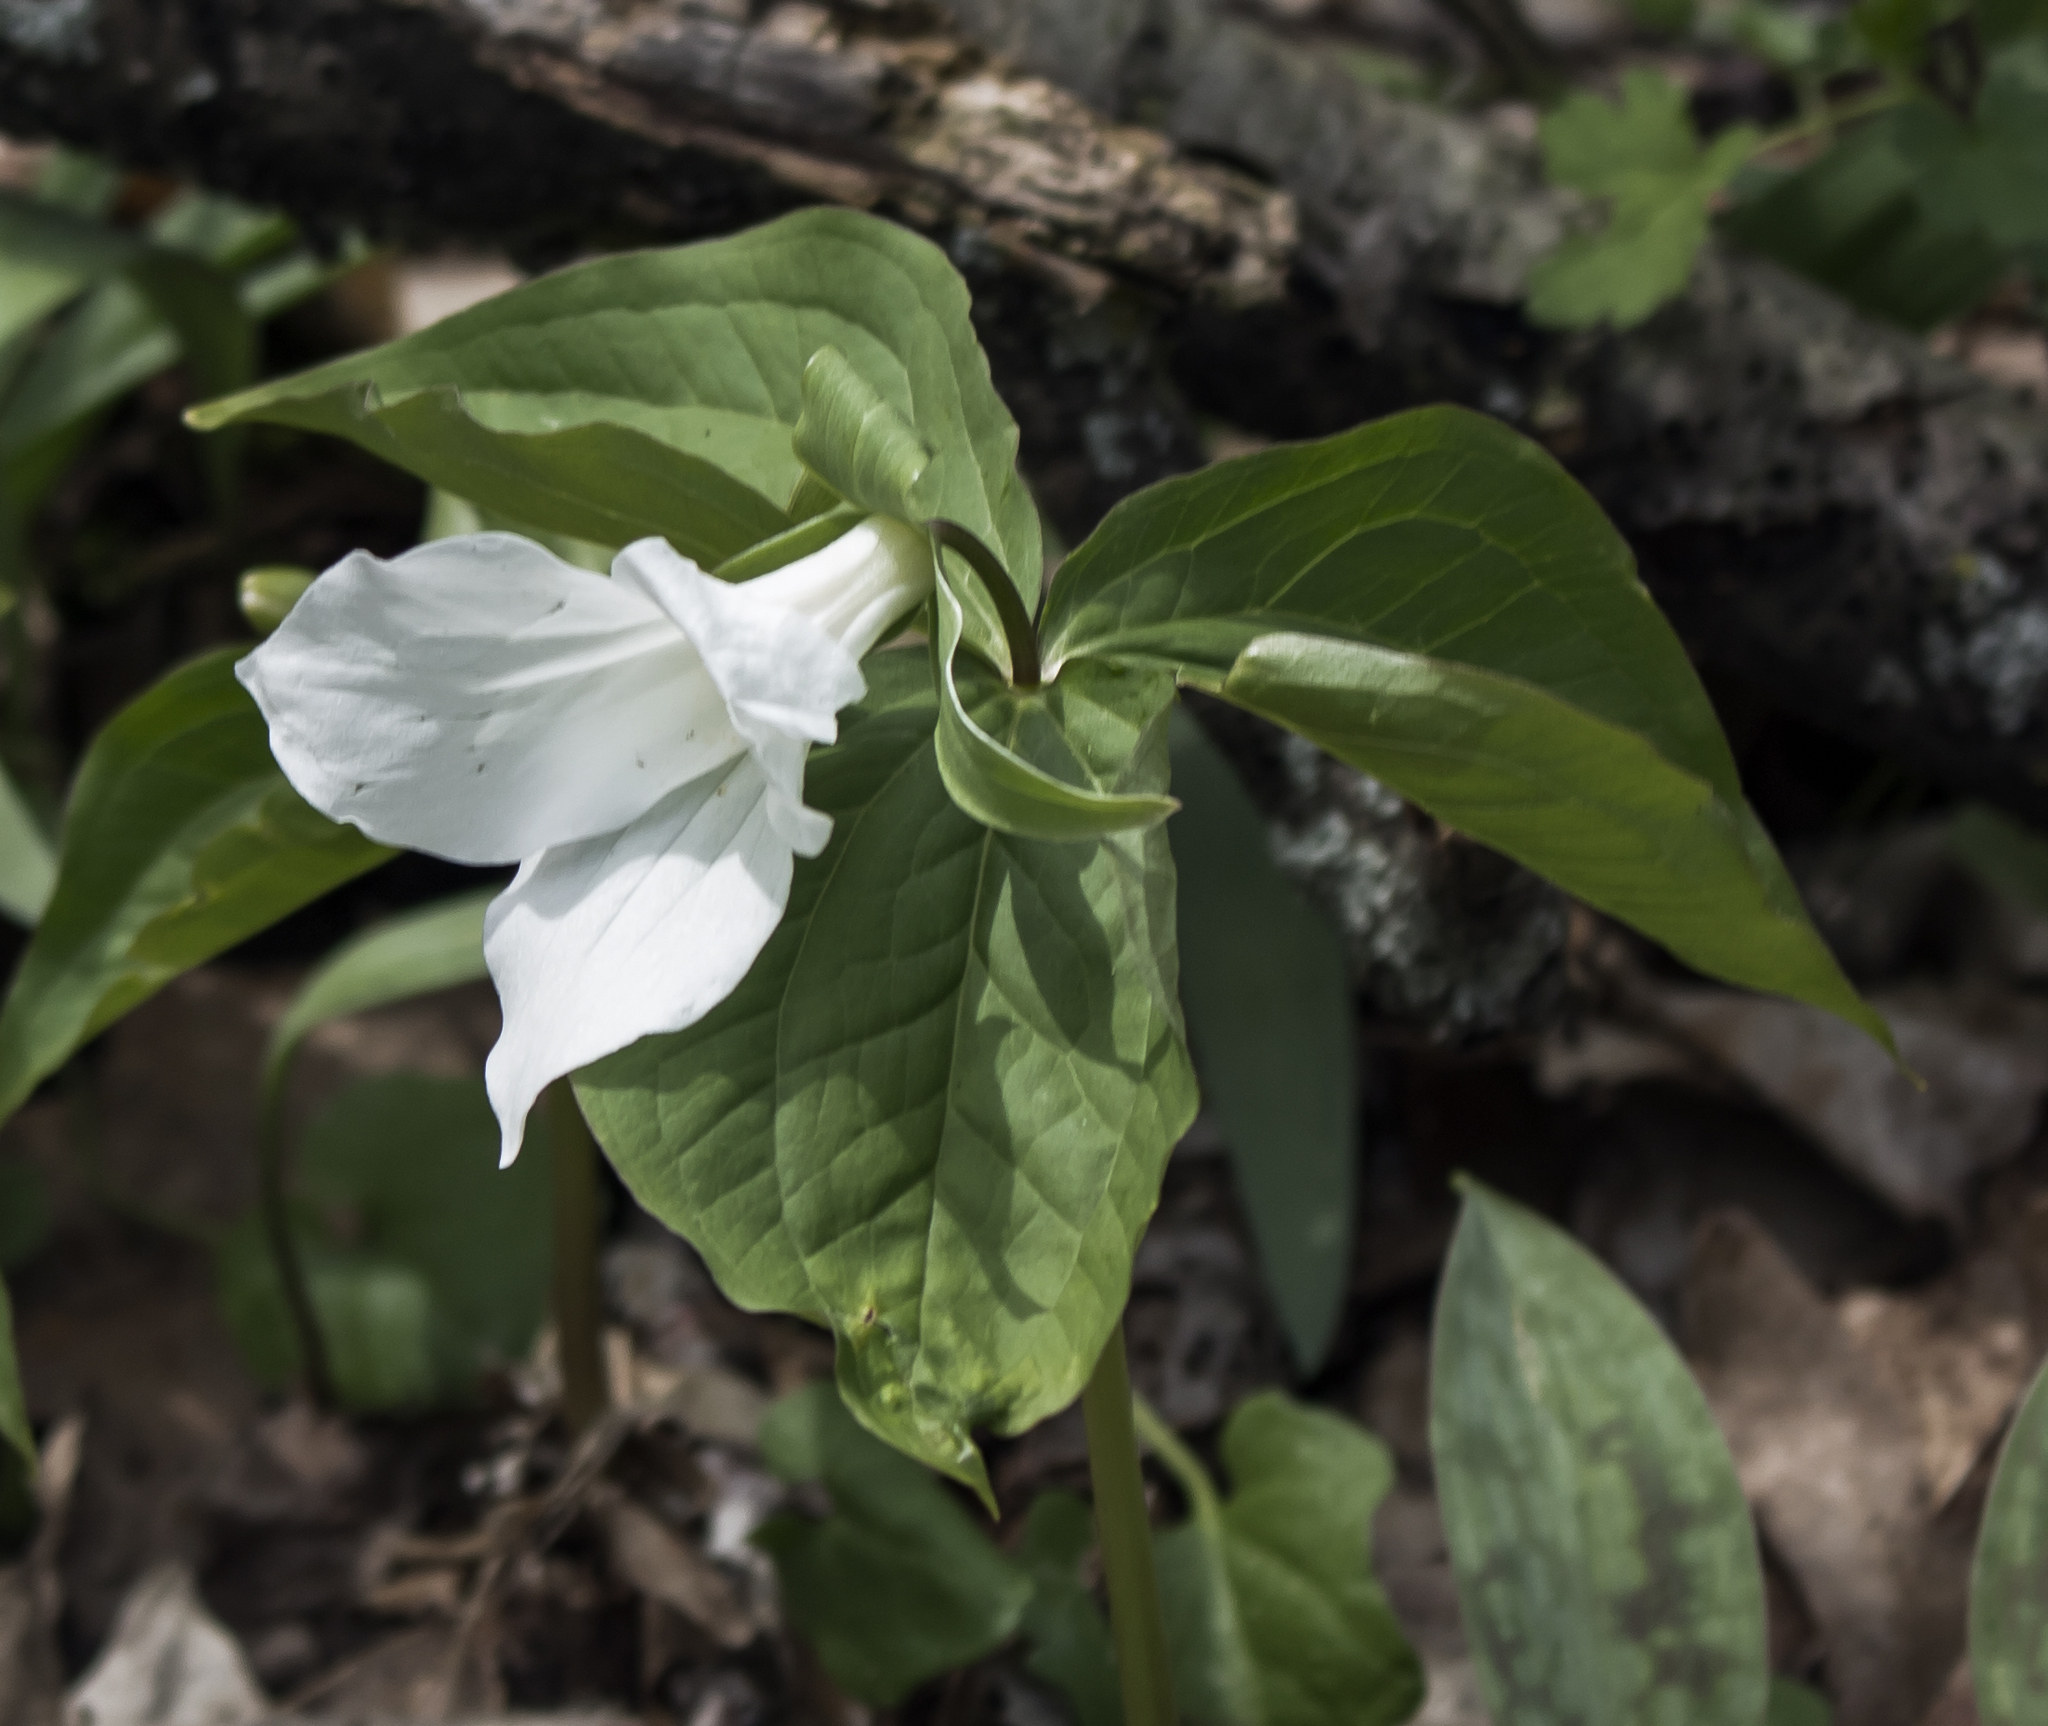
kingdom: Plantae
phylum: Tracheophyta
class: Liliopsida
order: Liliales
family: Melanthiaceae
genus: Trillium
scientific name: Trillium grandiflorum
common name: Great white trillium
